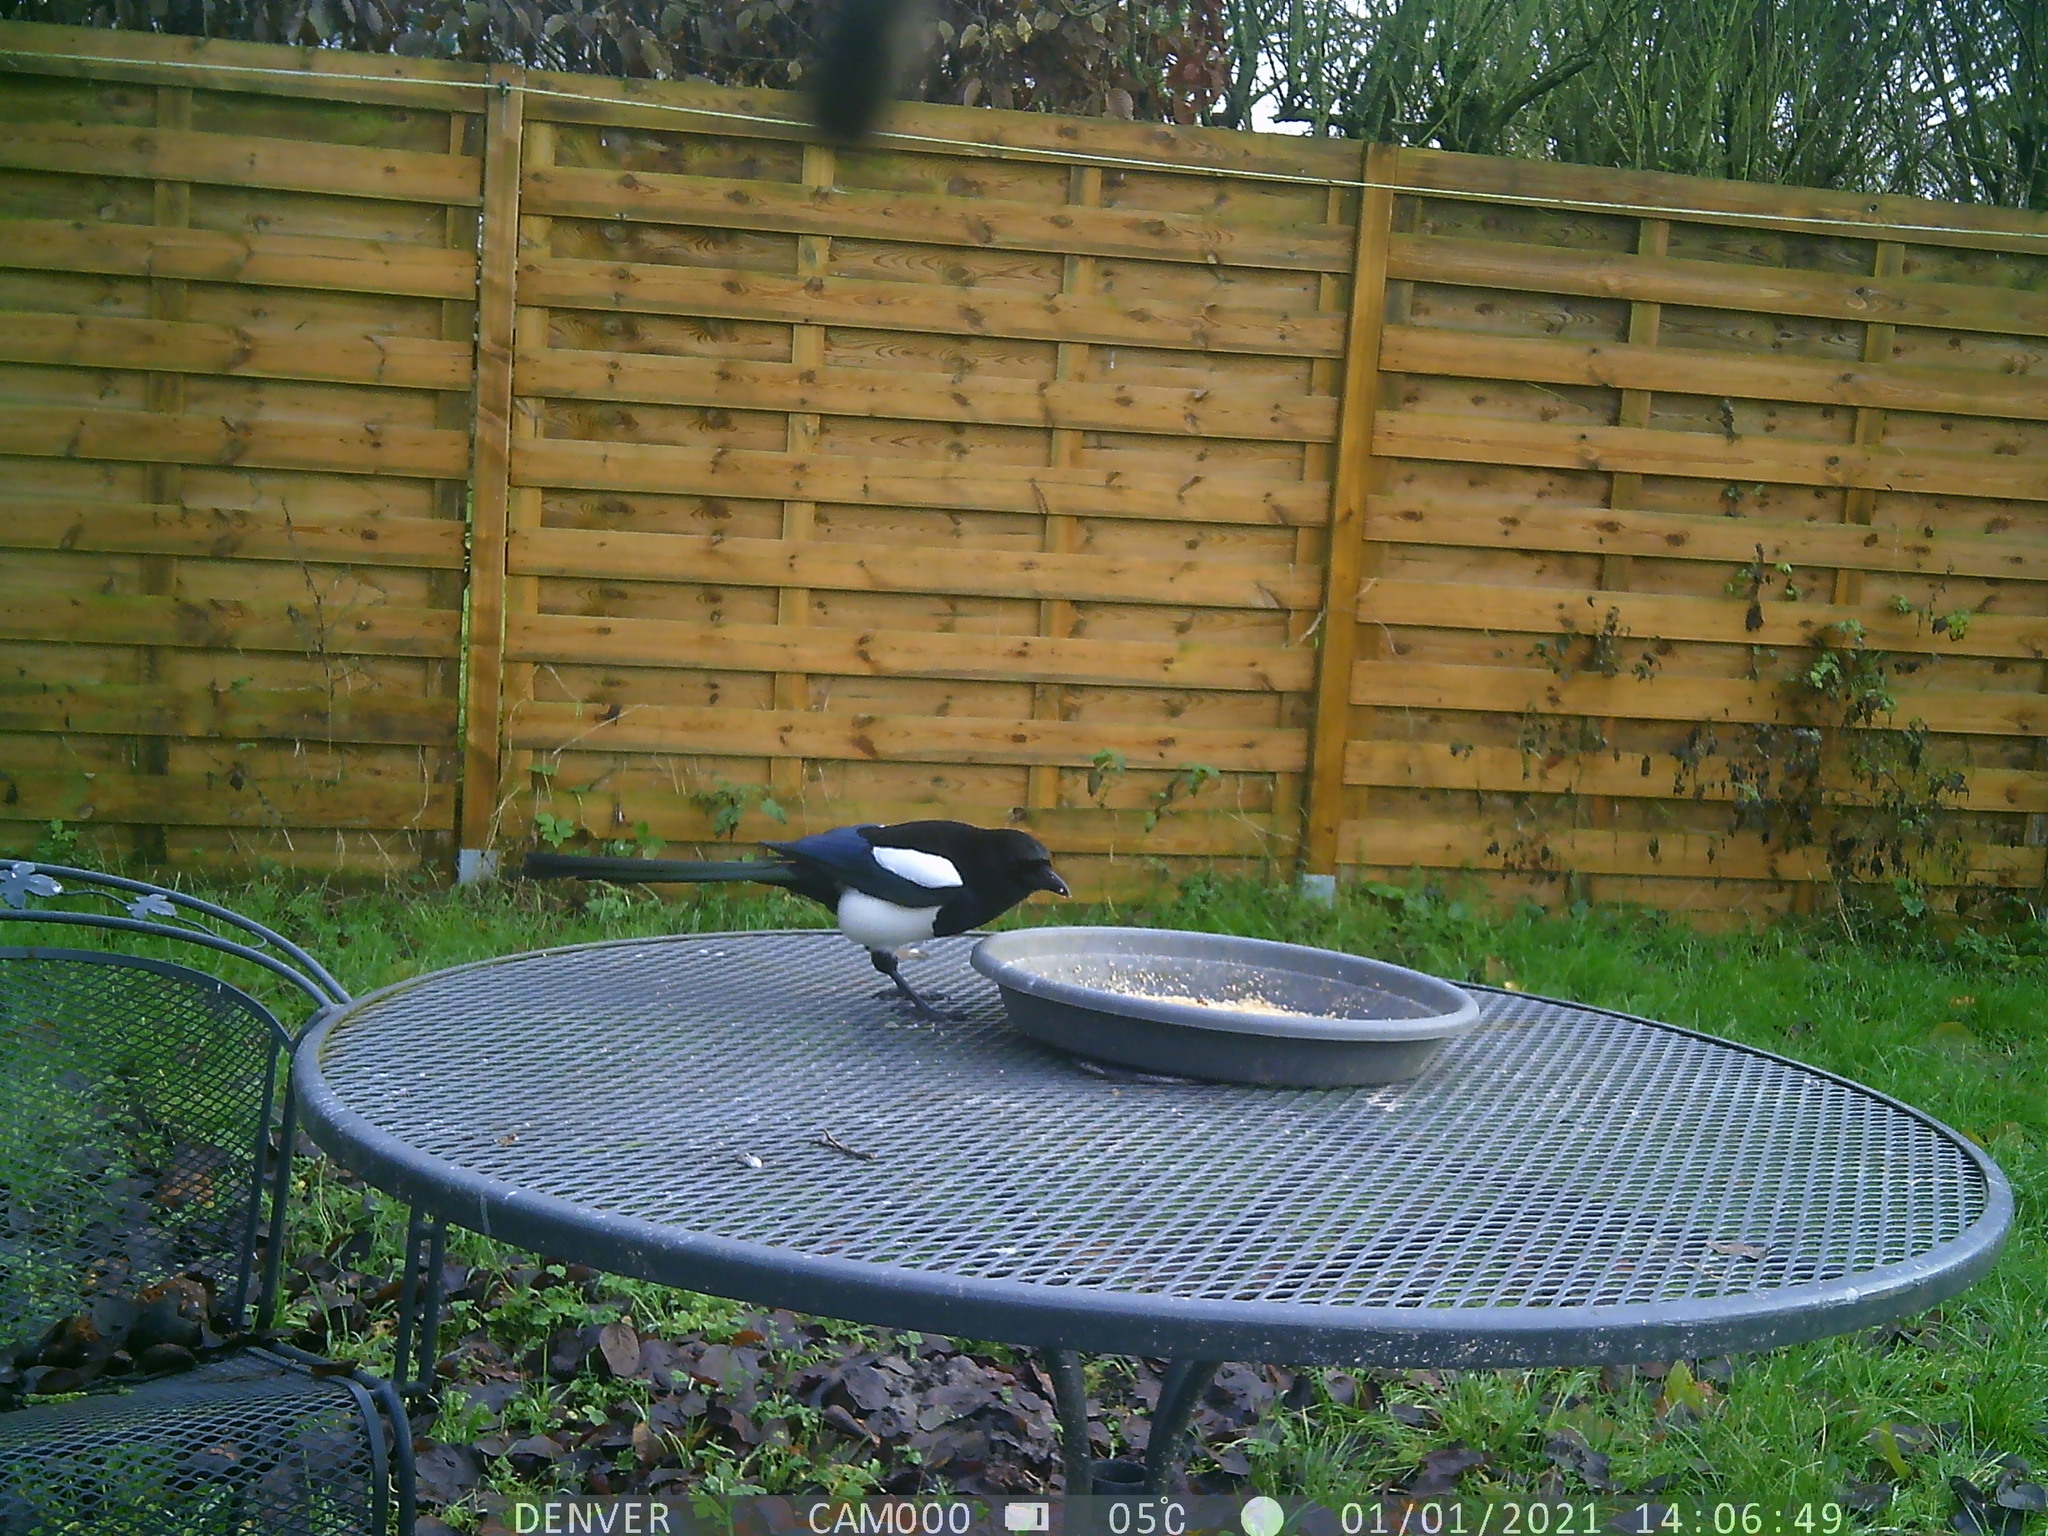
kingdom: Animalia
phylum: Chordata
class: Aves
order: Passeriformes
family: Corvidae
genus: Pica
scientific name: Pica pica
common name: Eurasian magpie
